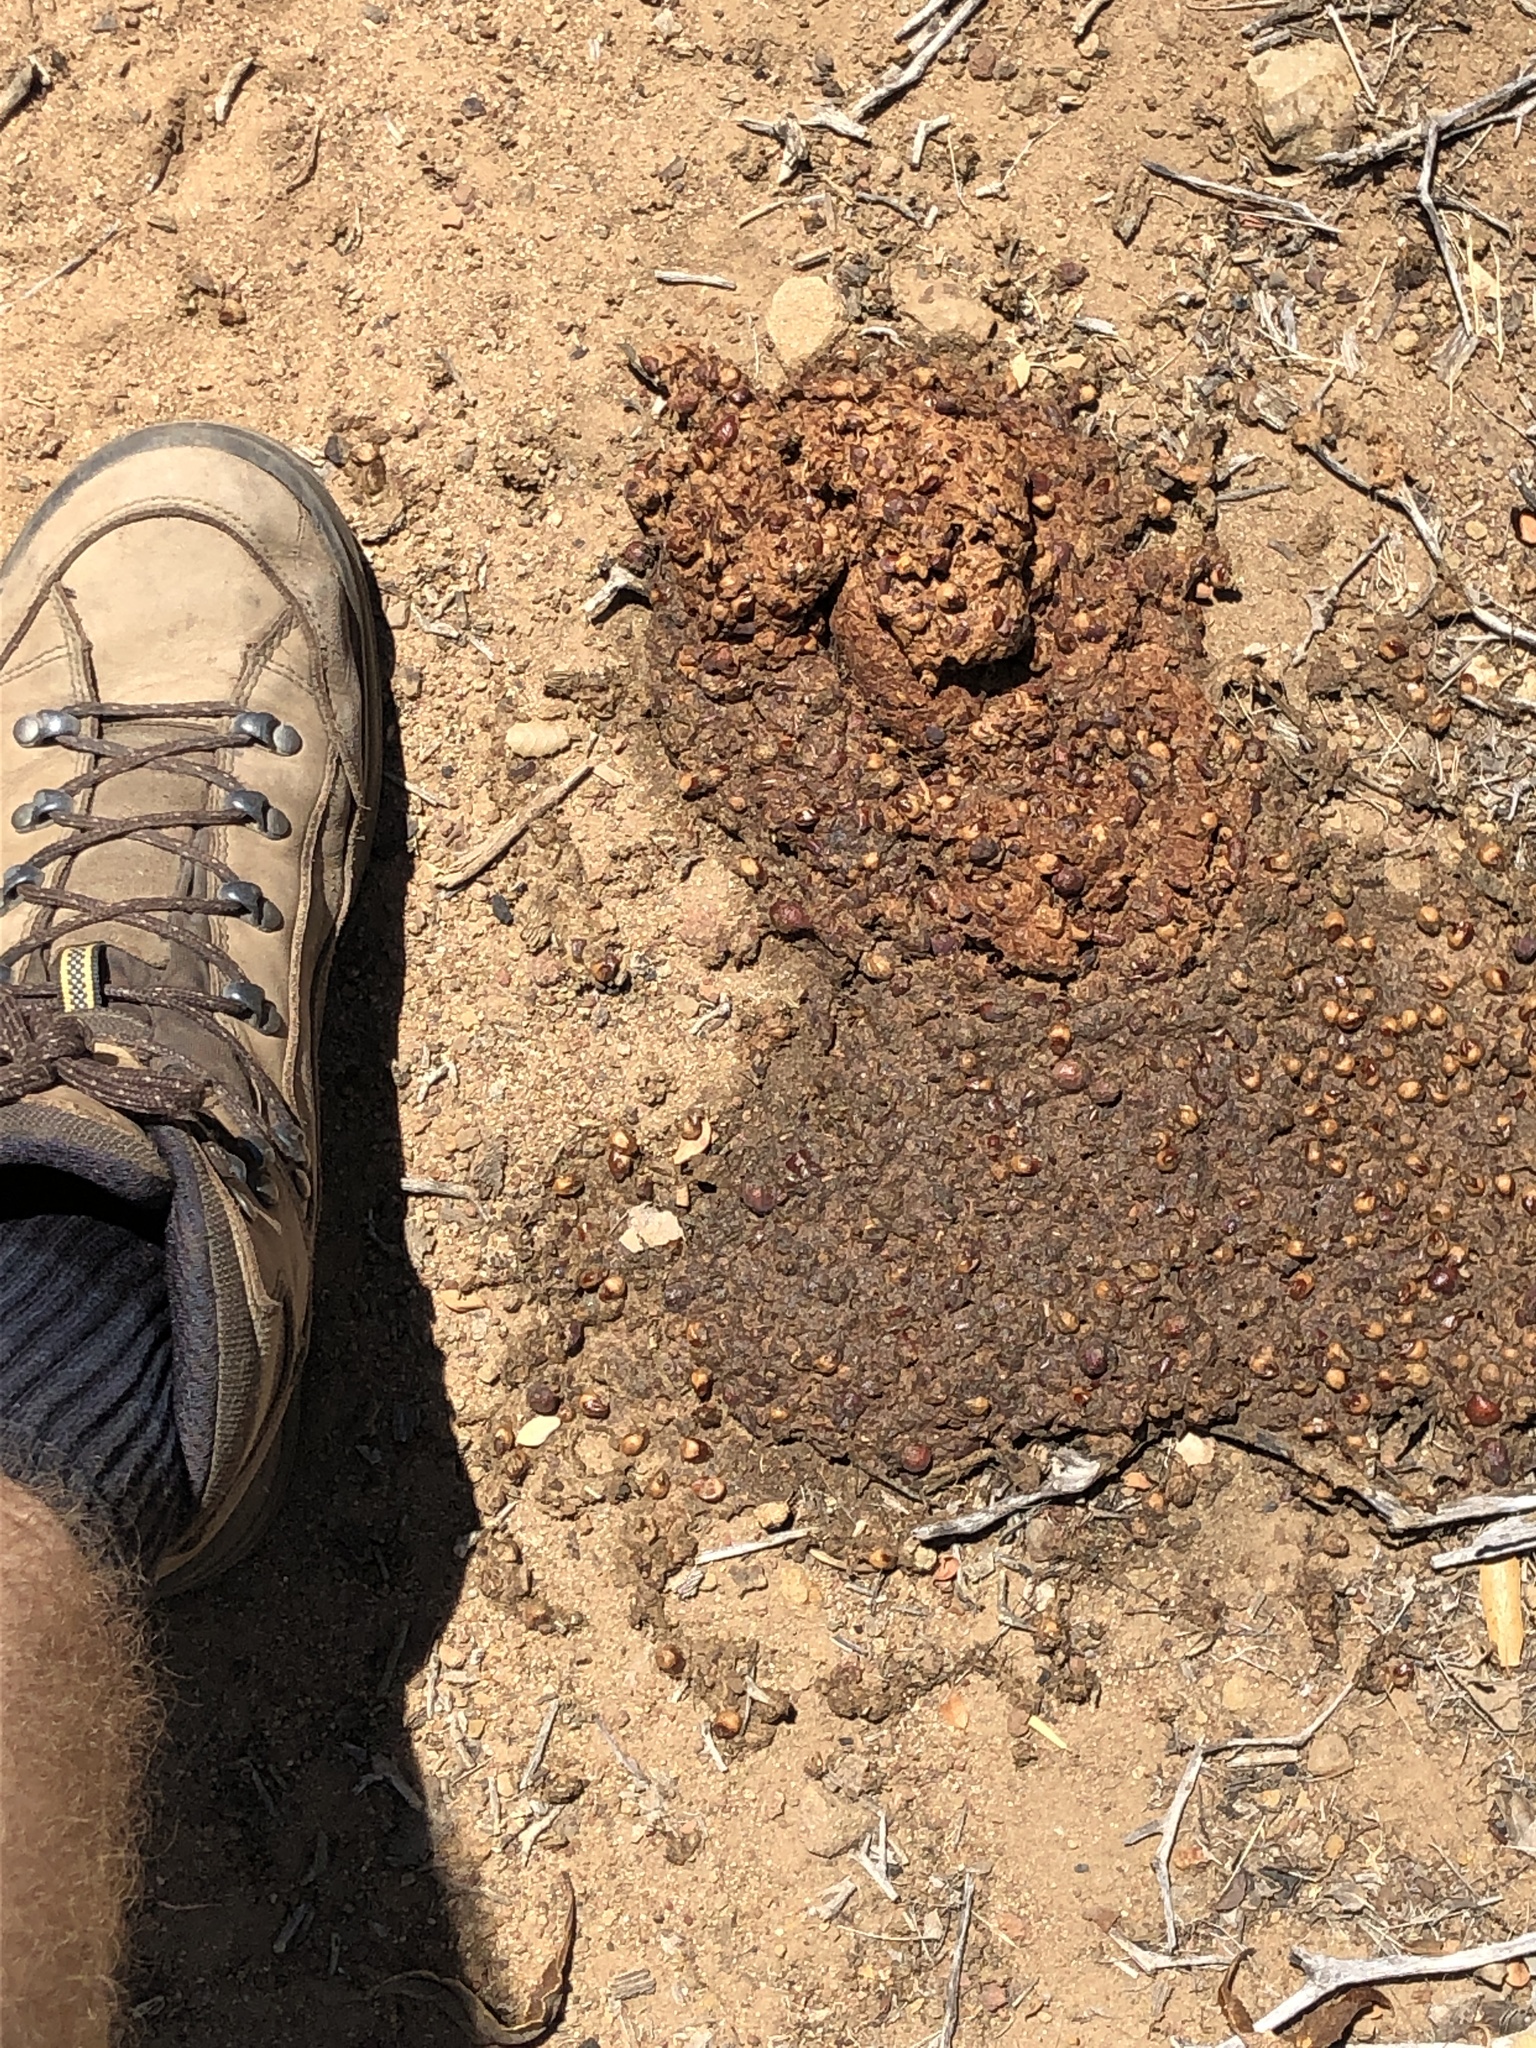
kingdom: Animalia
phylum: Chordata
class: Mammalia
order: Carnivora
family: Ursidae
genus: Ursus
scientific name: Ursus americanus
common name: American black bear
